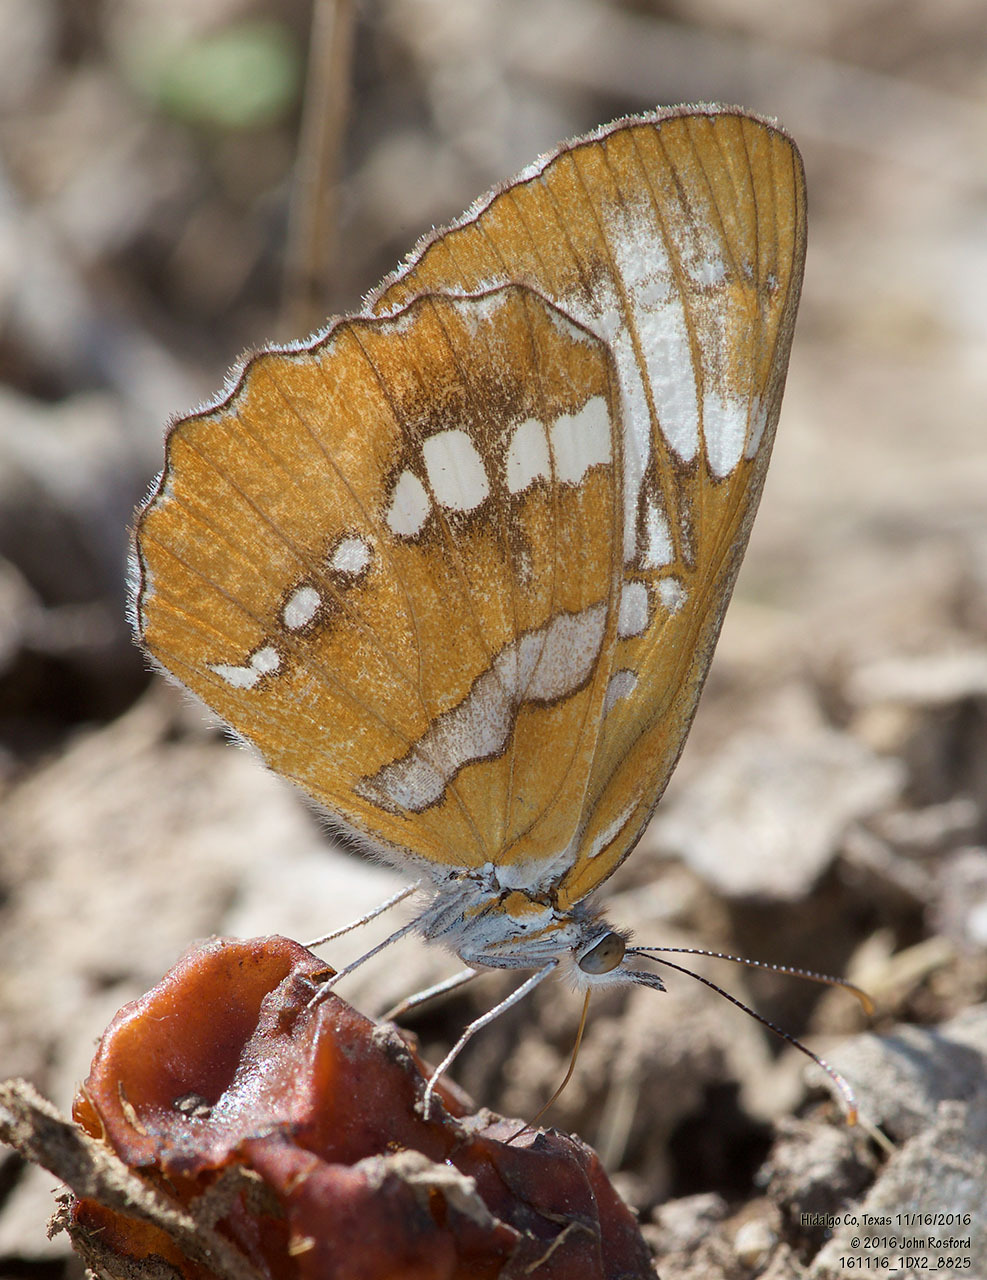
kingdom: Animalia
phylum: Arthropoda
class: Insecta
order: Lepidoptera
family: Nymphalidae
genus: Mestra
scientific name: Mestra amymone
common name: Common mestra
